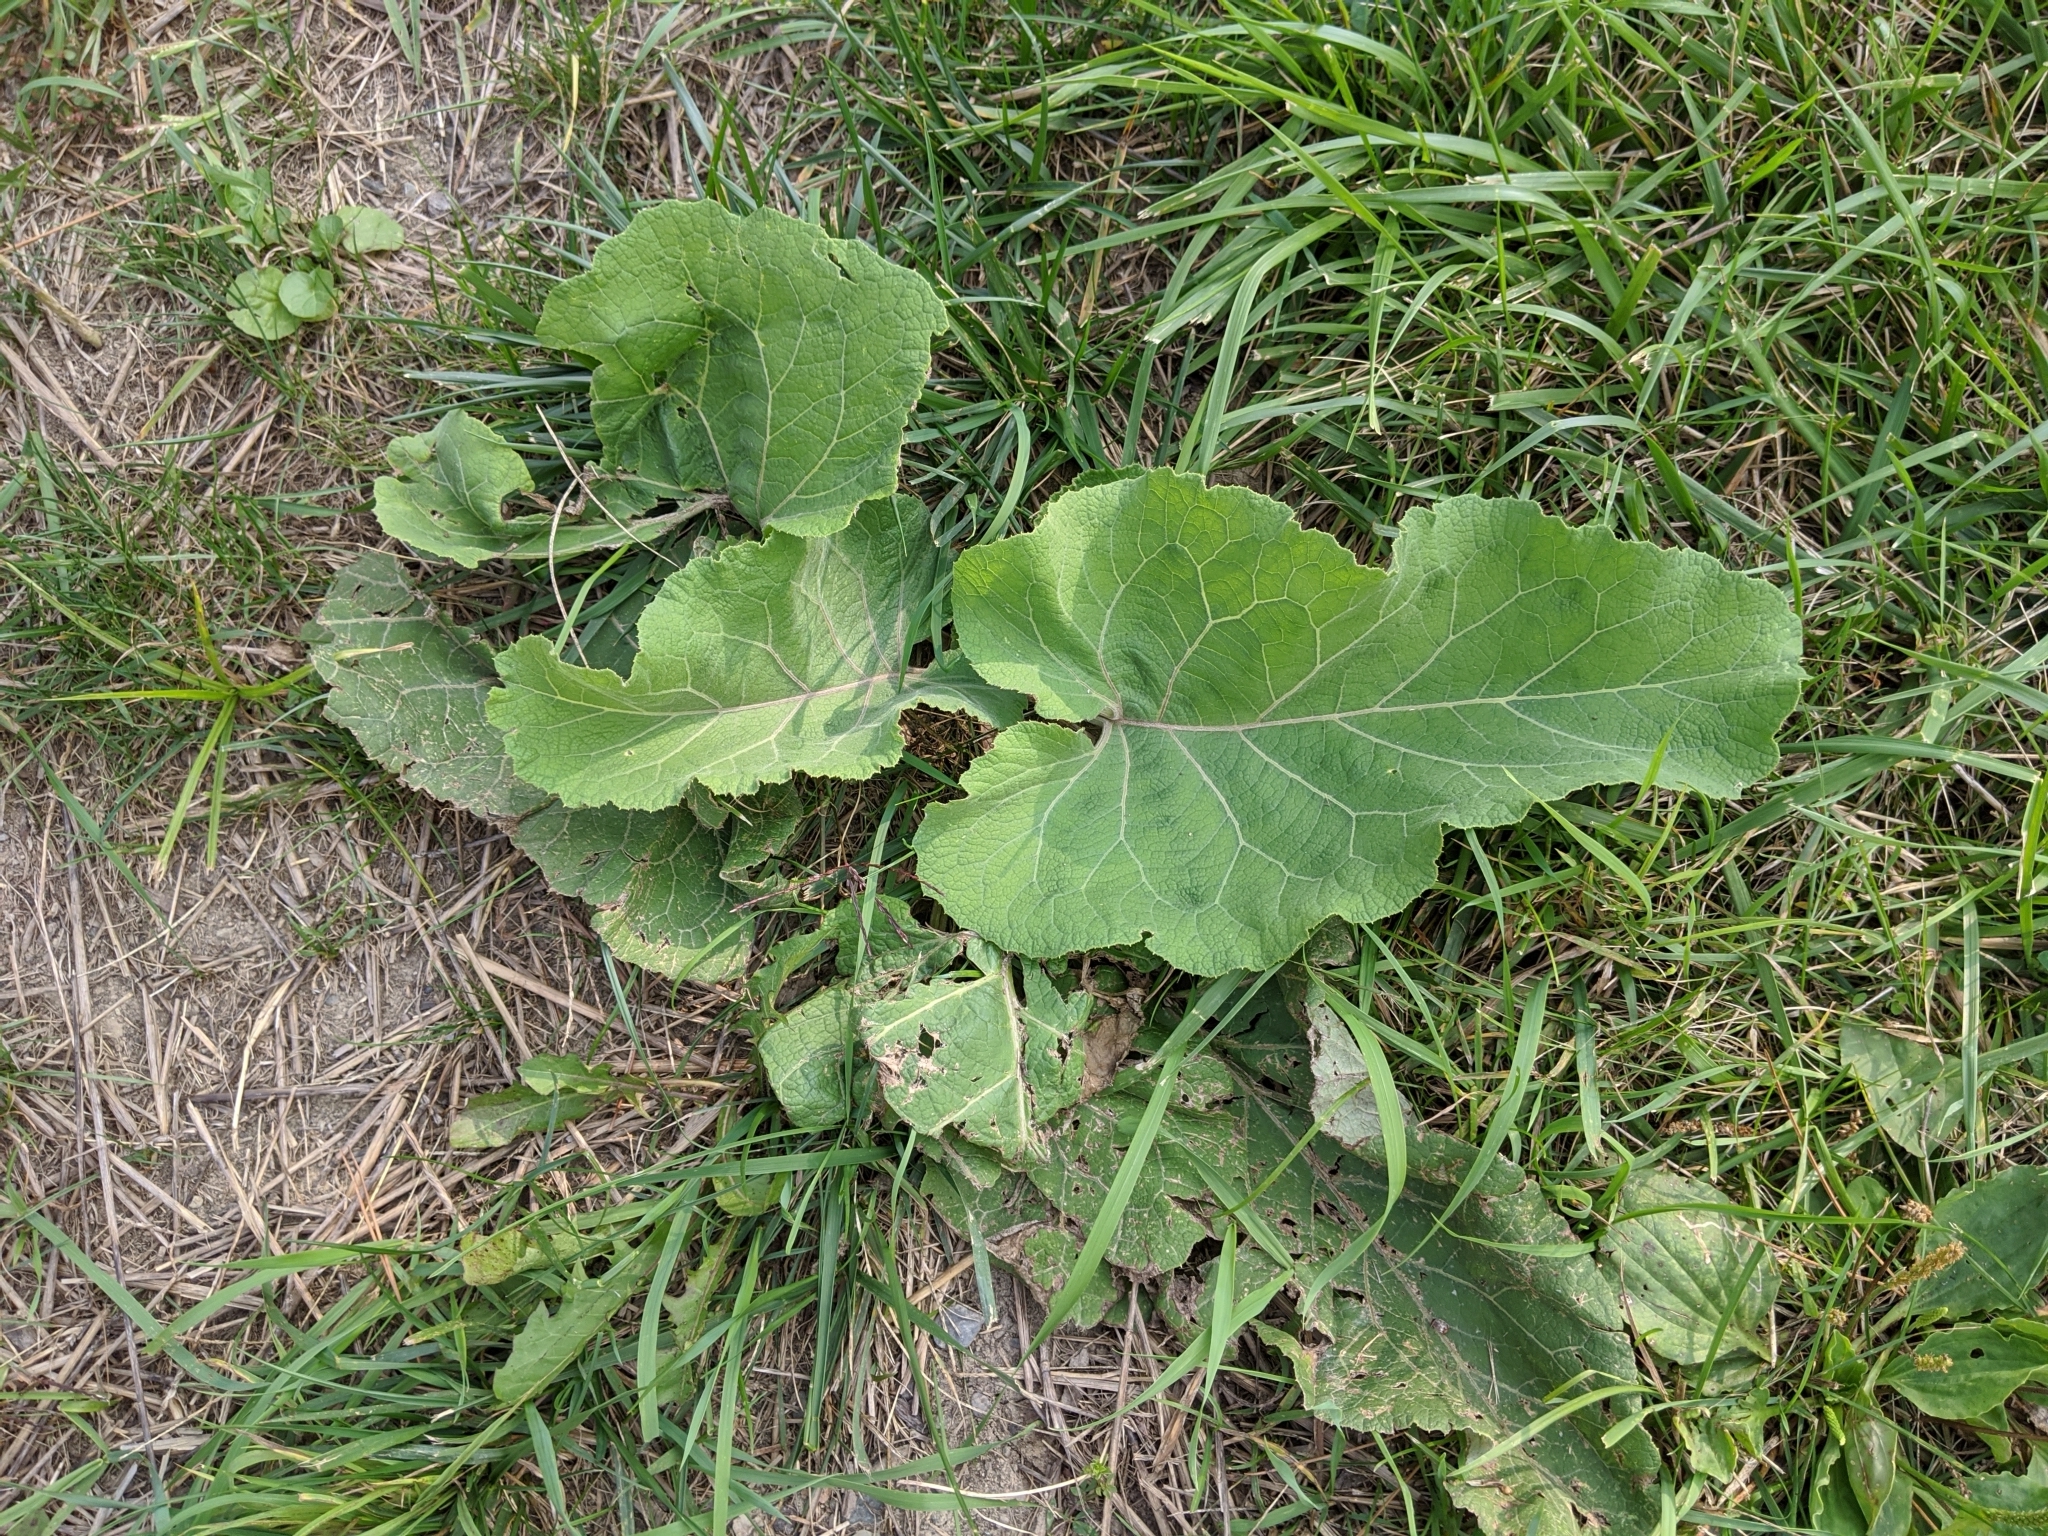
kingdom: Plantae
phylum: Tracheophyta
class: Magnoliopsida
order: Asterales
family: Asteraceae
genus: Arctium
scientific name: Arctium
